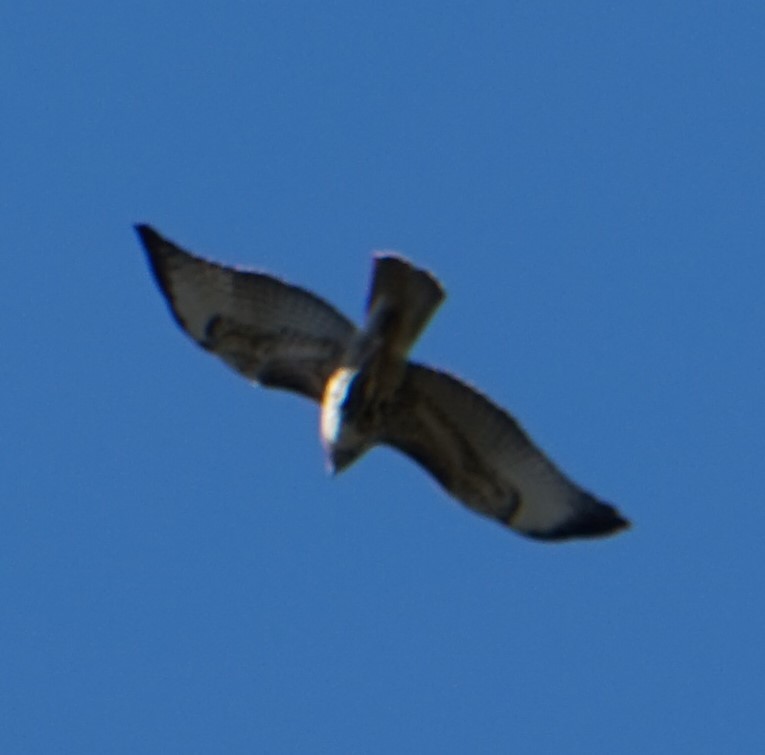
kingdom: Animalia
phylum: Chordata
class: Aves
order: Accipitriformes
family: Accipitridae
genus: Buteo
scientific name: Buteo jamaicensis
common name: Red-tailed hawk
